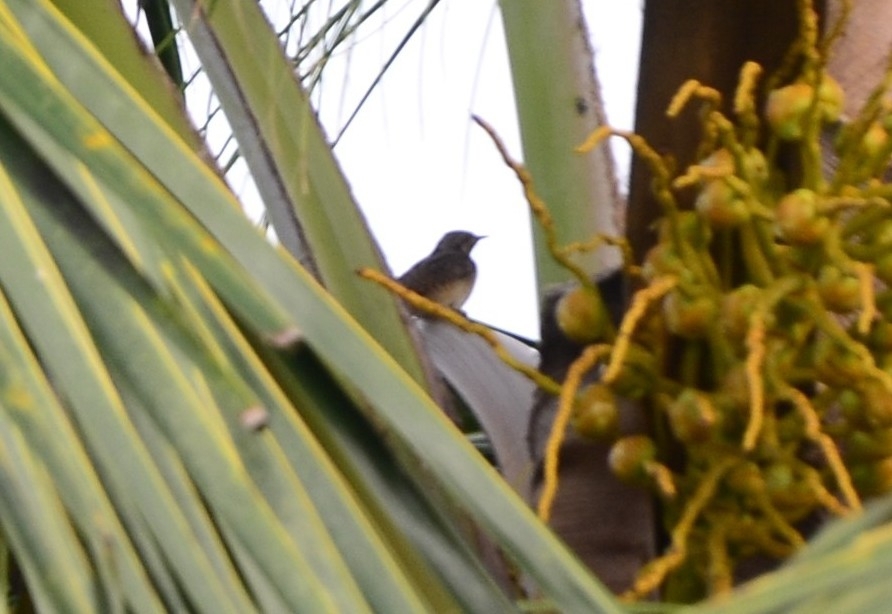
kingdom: Animalia
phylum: Chordata
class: Aves
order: Piciformes
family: Picidae
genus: Jynx
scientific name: Jynx torquilla
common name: Eurasian wryneck
